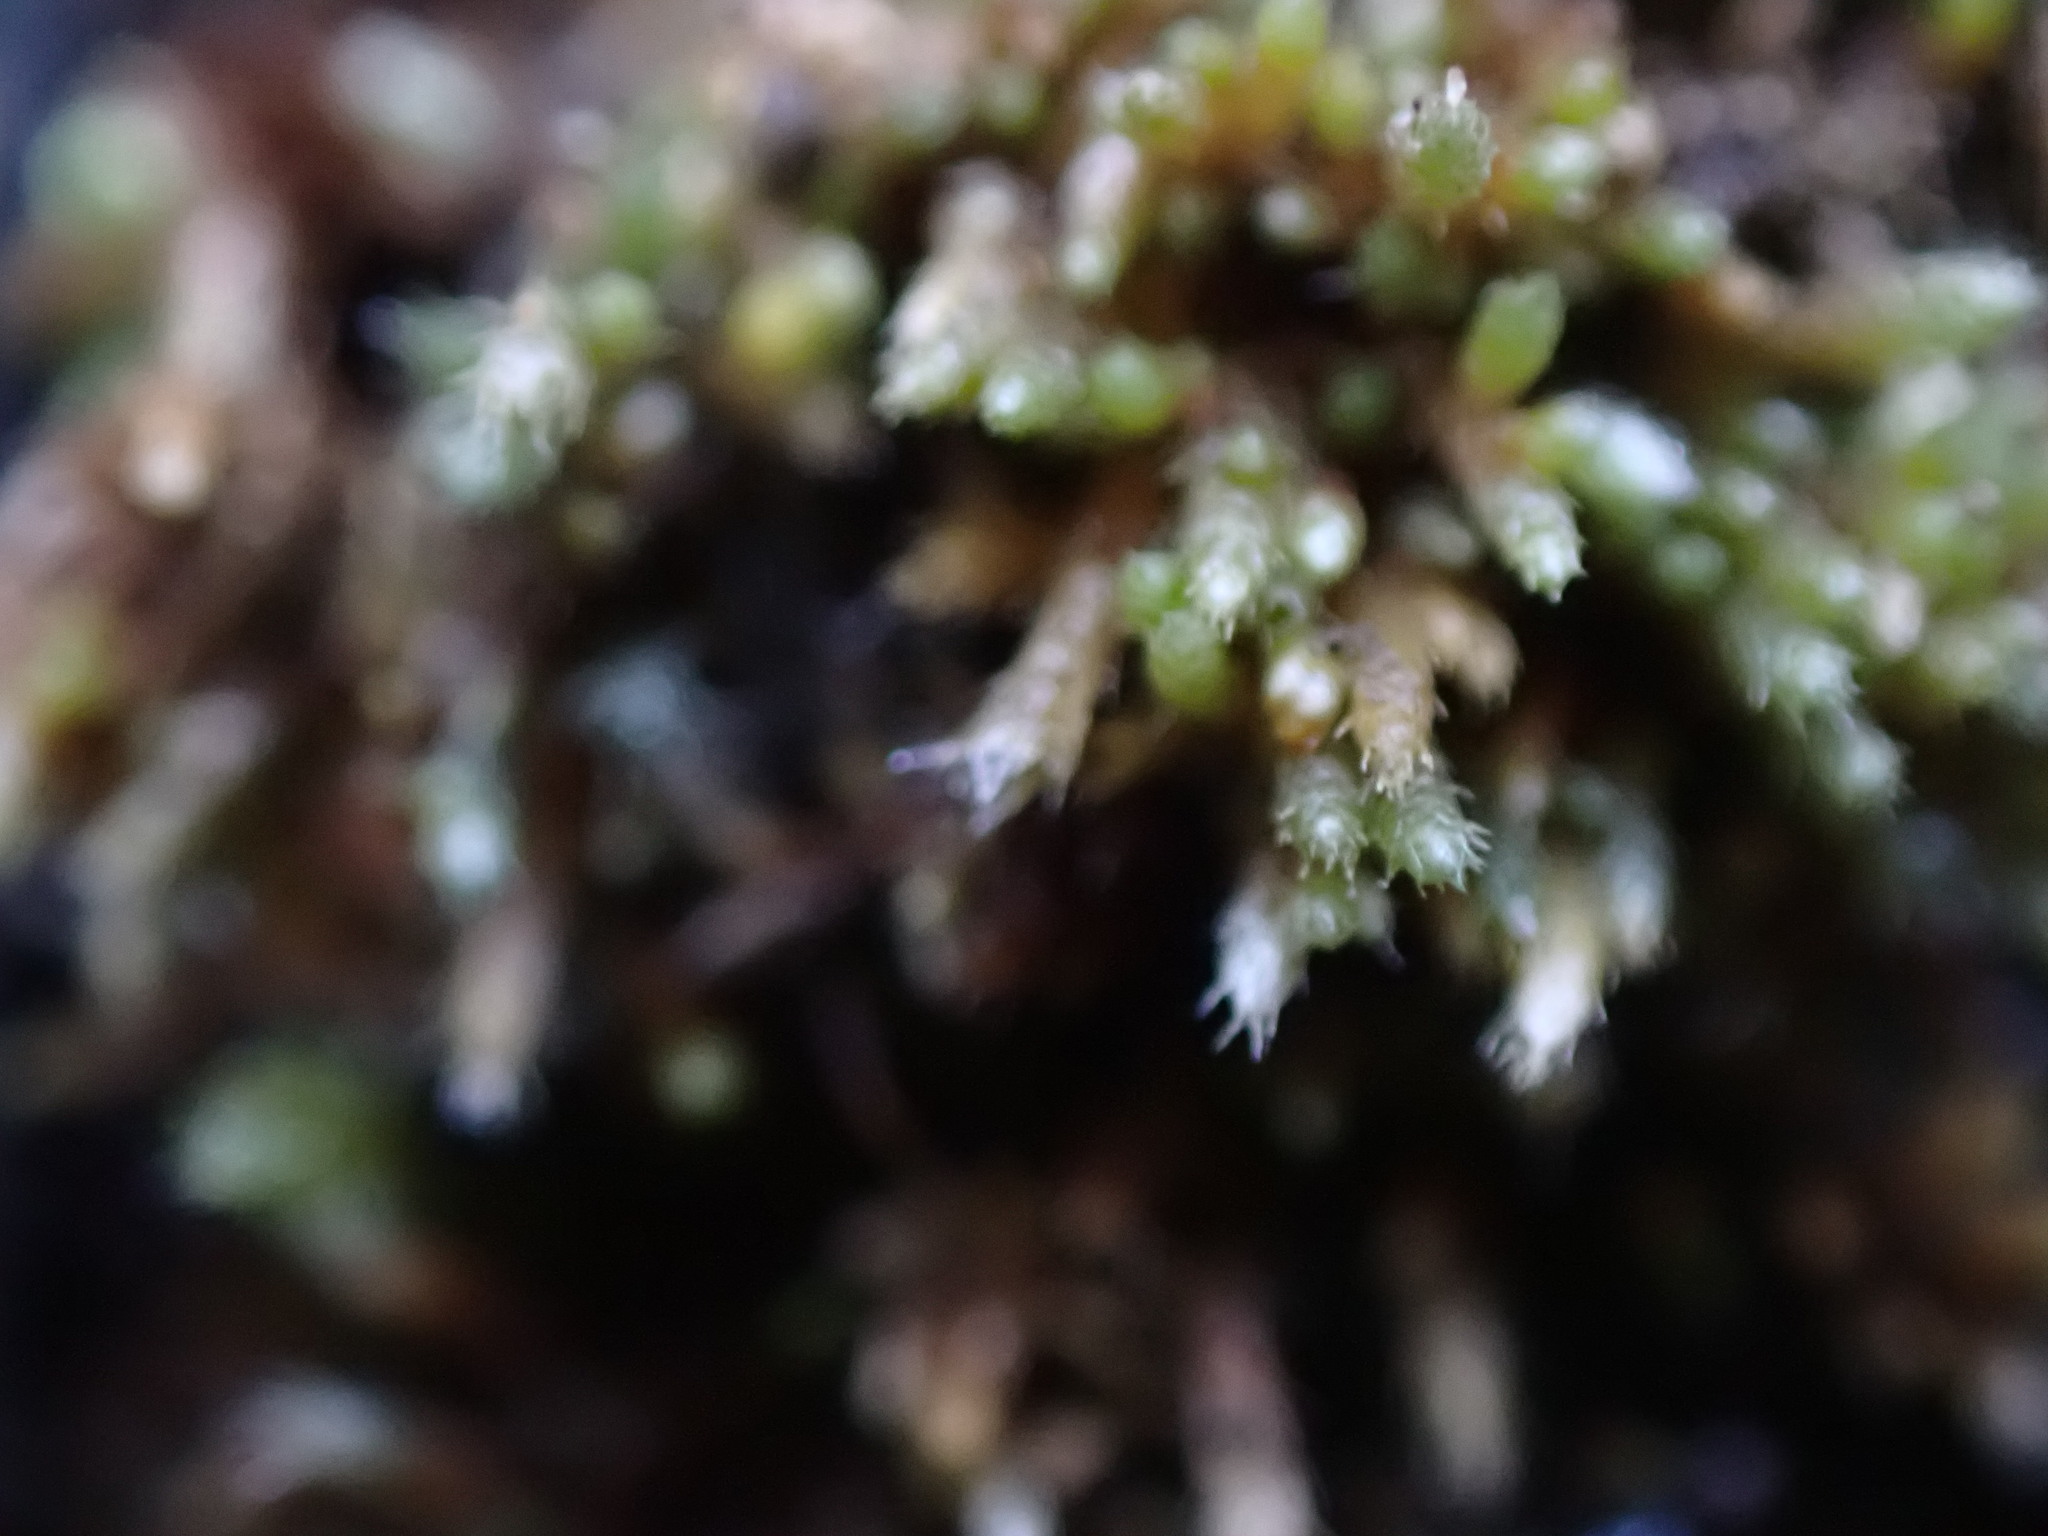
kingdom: Plantae
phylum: Bryophyta
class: Bryopsida
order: Bryales
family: Bryaceae
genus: Bryum
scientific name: Bryum argenteum
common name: Silver-moss
